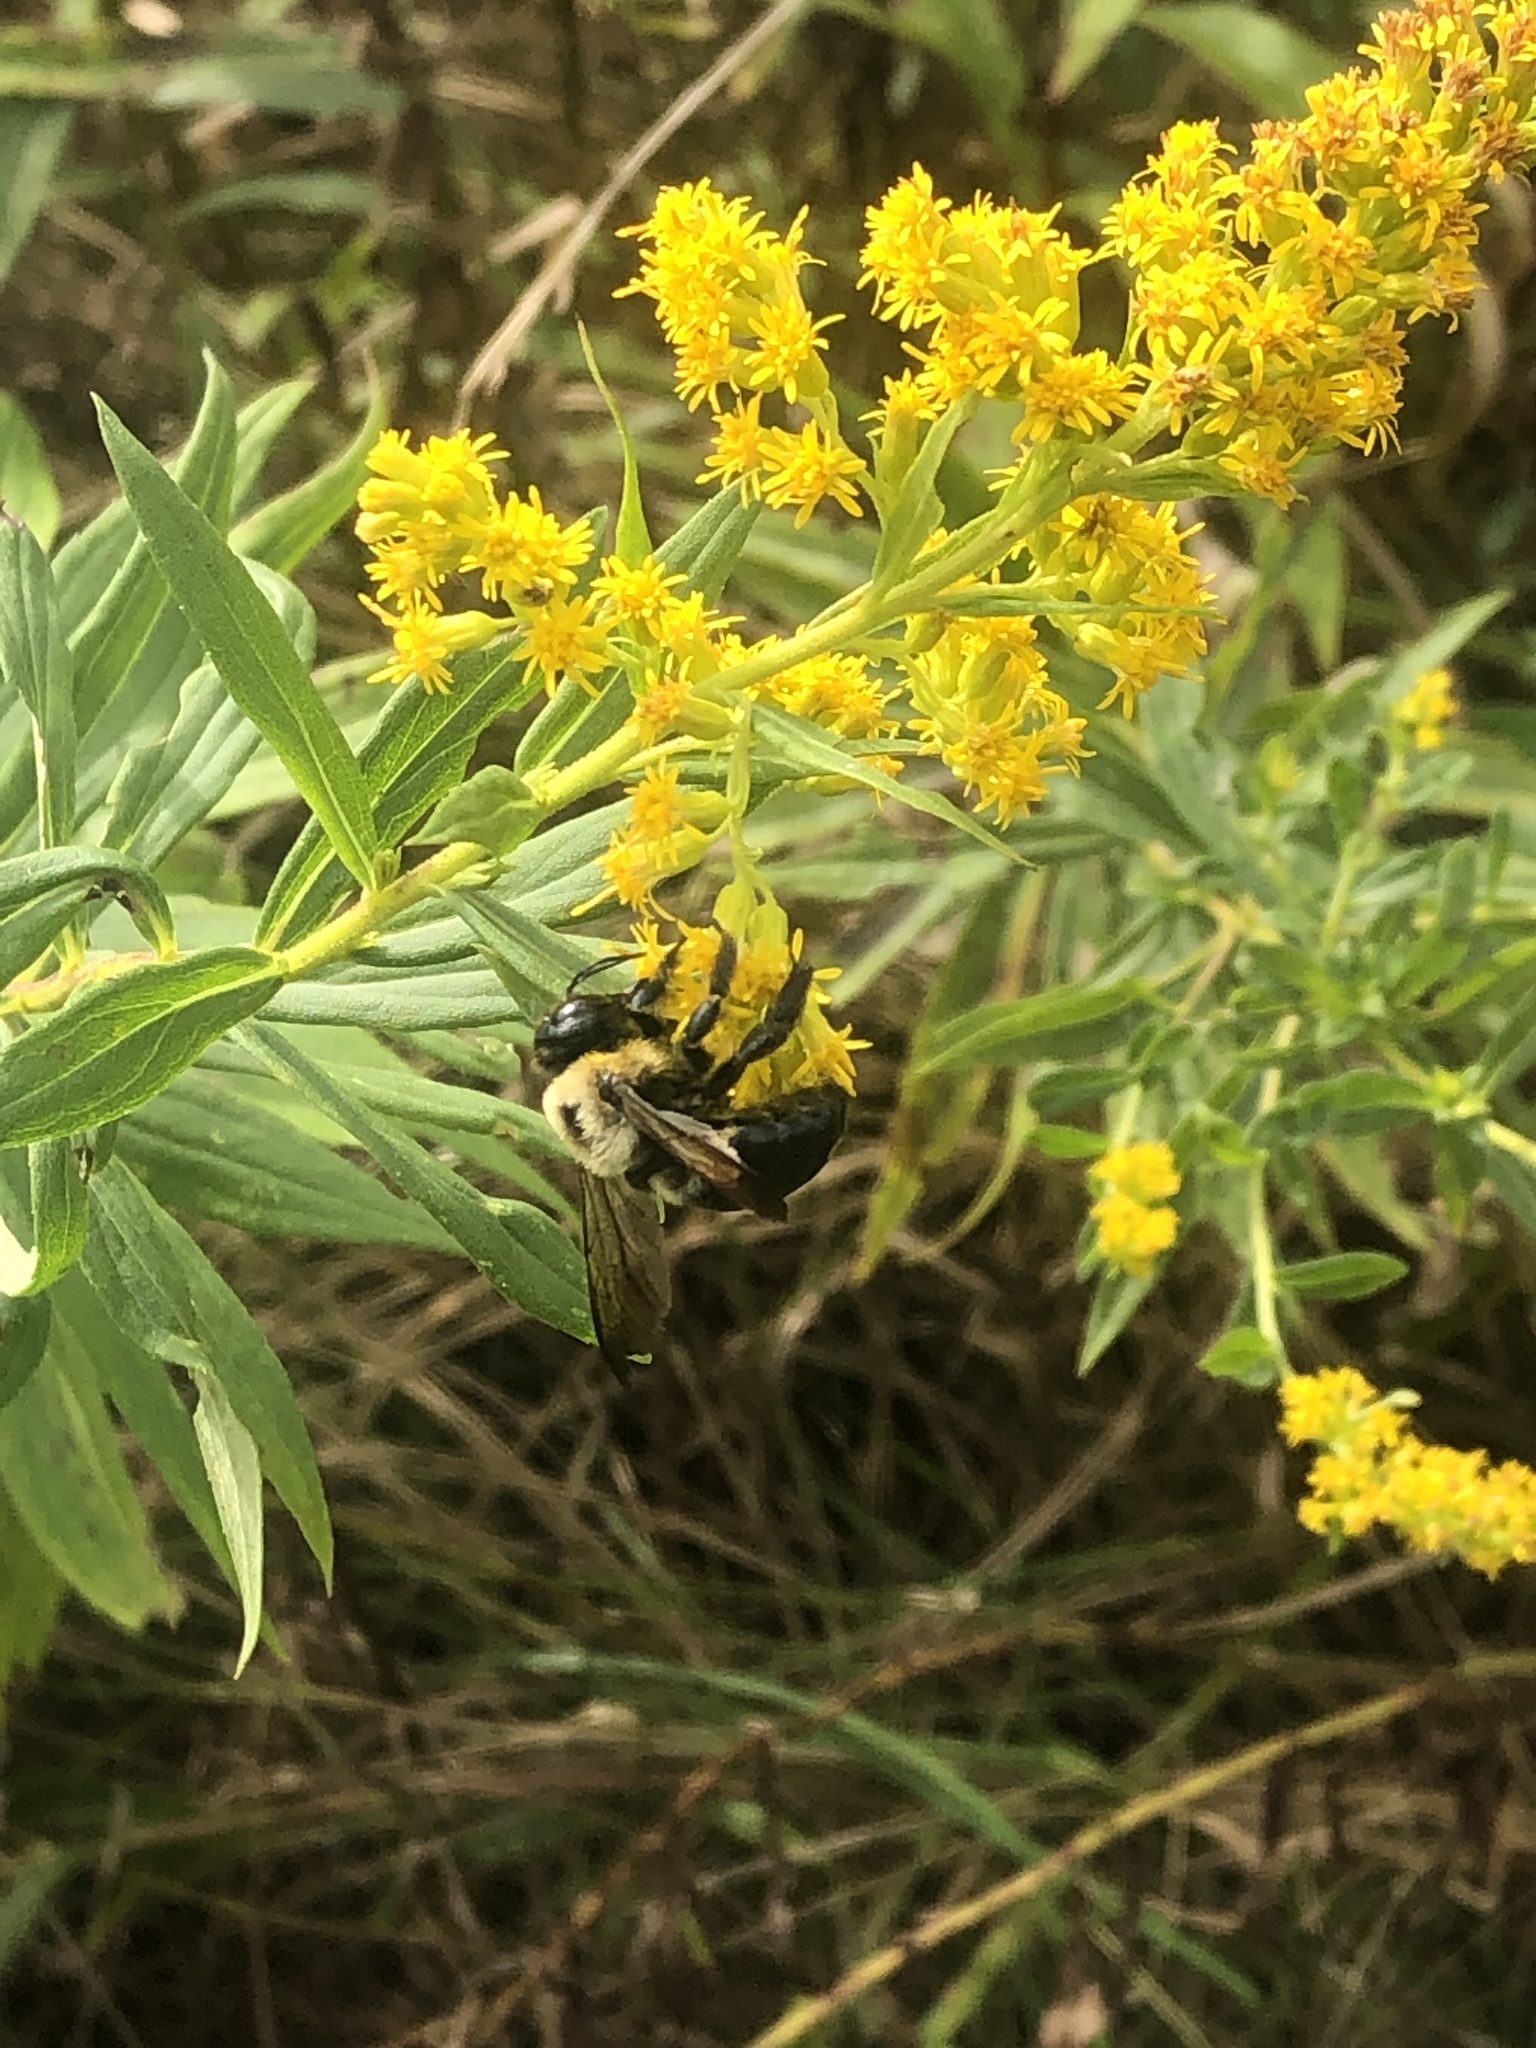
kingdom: Animalia
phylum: Arthropoda
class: Insecta
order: Hymenoptera
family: Apidae
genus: Xylocopa
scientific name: Xylocopa virginica
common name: Carpenter bee
